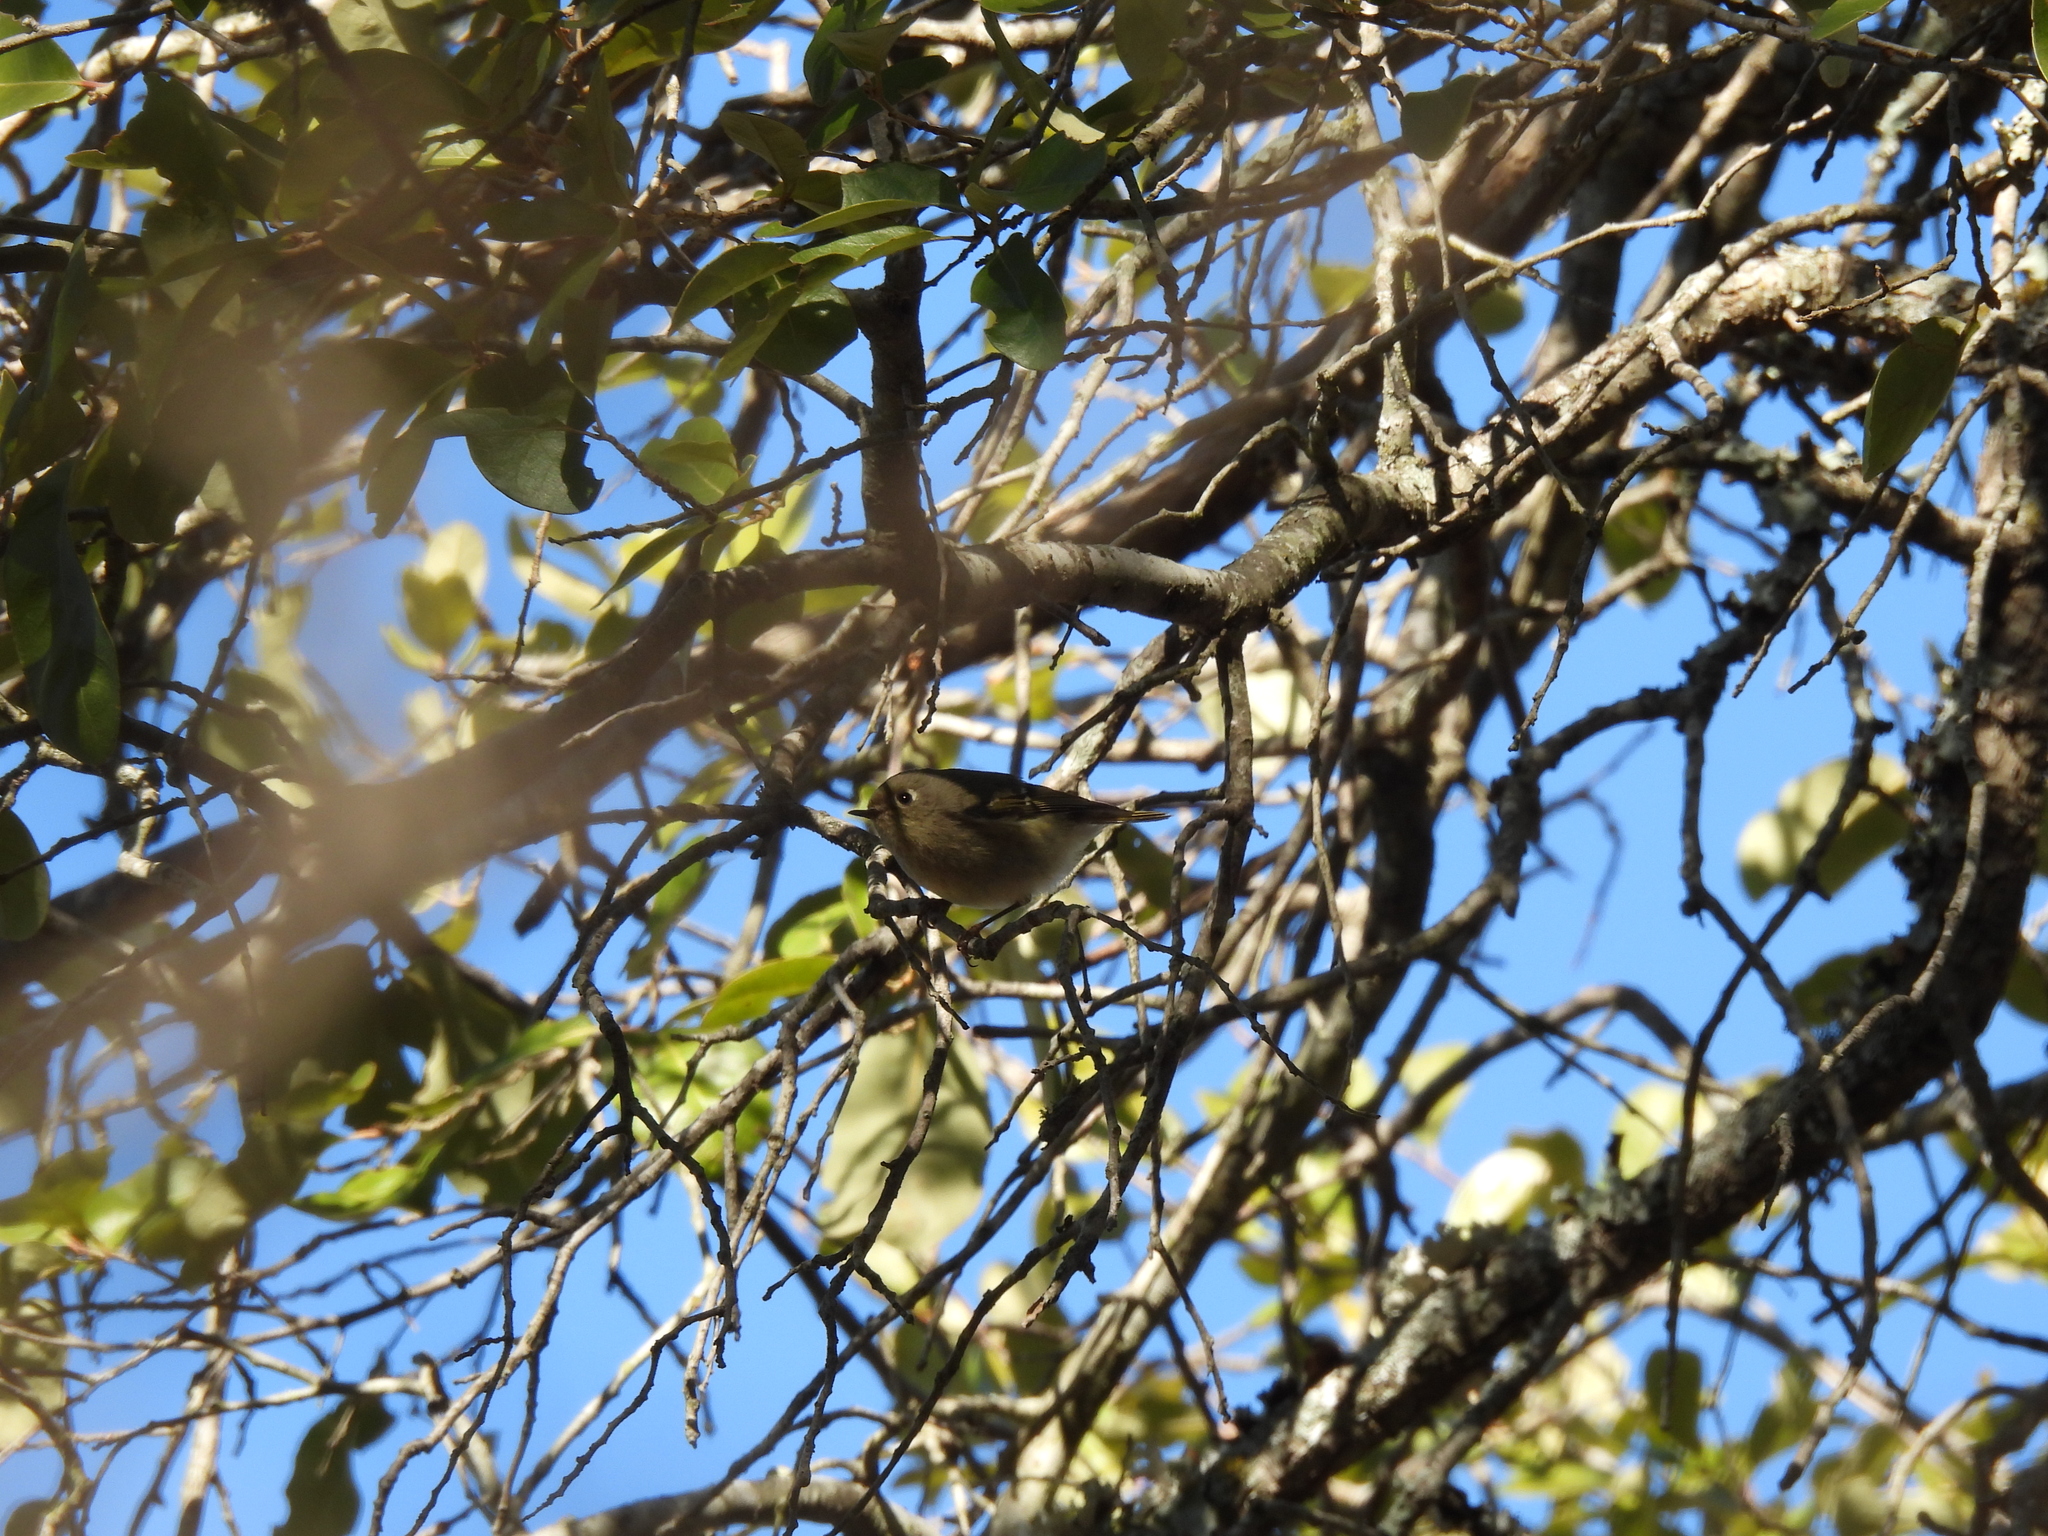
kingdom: Animalia
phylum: Chordata
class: Aves
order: Passeriformes
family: Regulidae
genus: Regulus
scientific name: Regulus calendula
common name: Ruby-crowned kinglet
